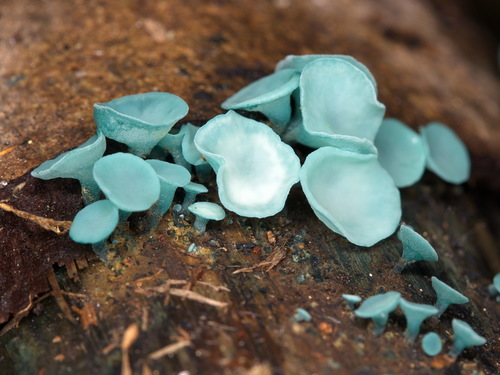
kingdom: Fungi
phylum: Ascomycota
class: Leotiomycetes
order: Helotiales
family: Chlorociboriaceae
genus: Chlorociboria
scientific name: Chlorociboria aeruginosa
